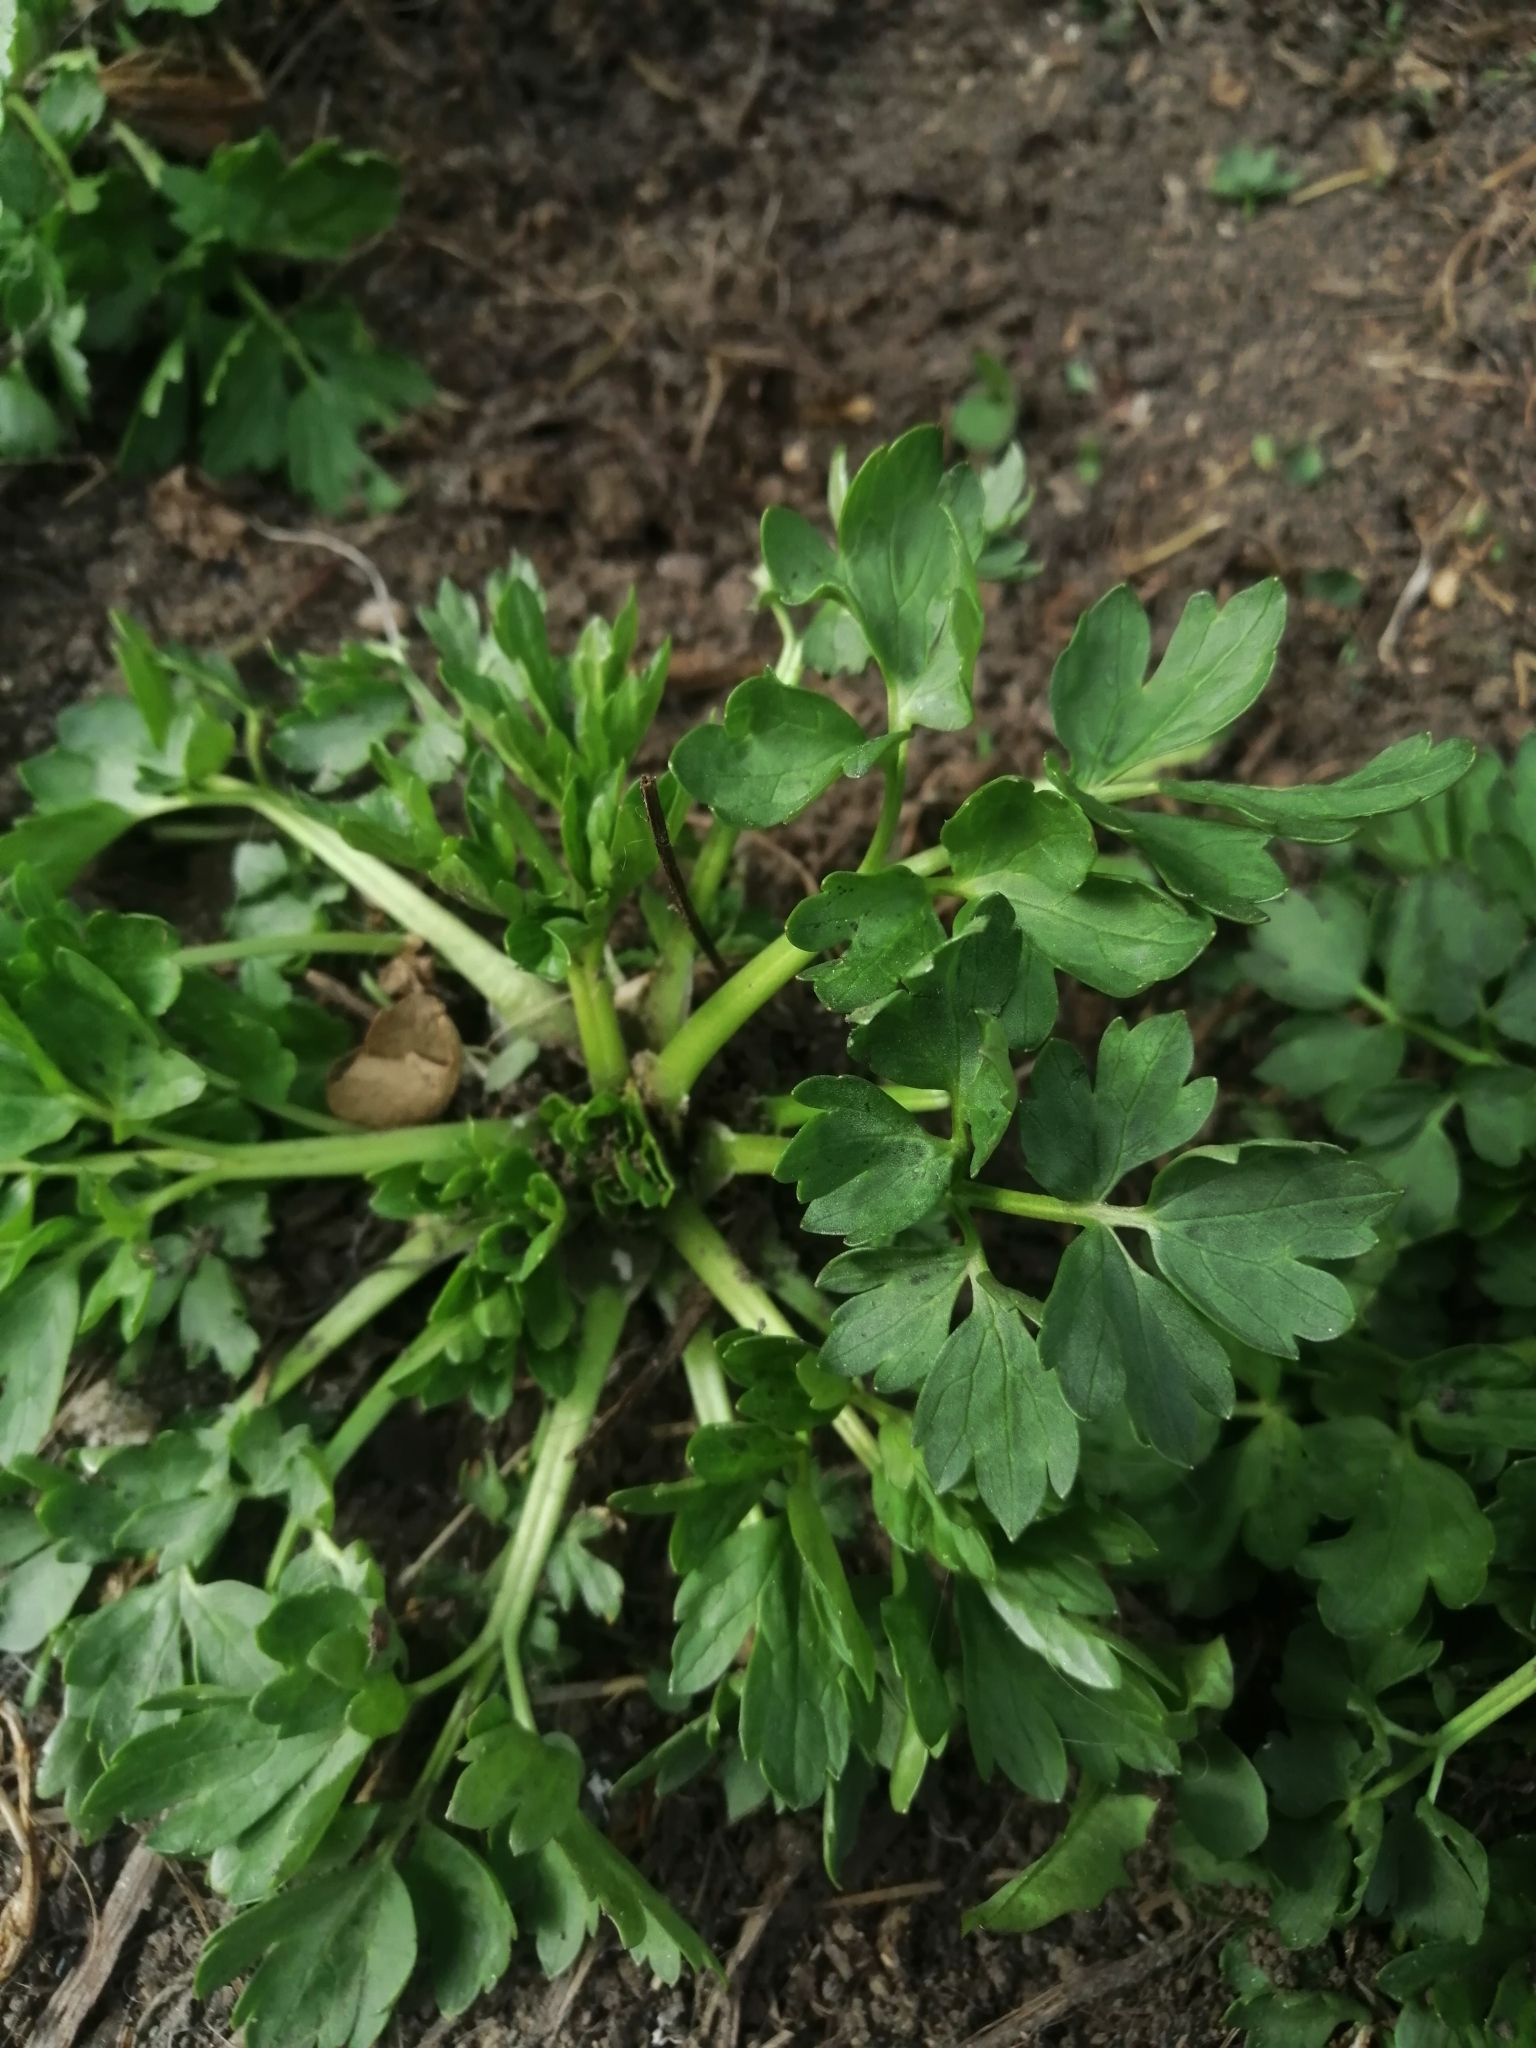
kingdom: Plantae
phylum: Tracheophyta
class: Magnoliopsida
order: Ranunculales
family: Ranunculaceae
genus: Ranunculus
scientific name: Ranunculus repens
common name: Creeping buttercup
